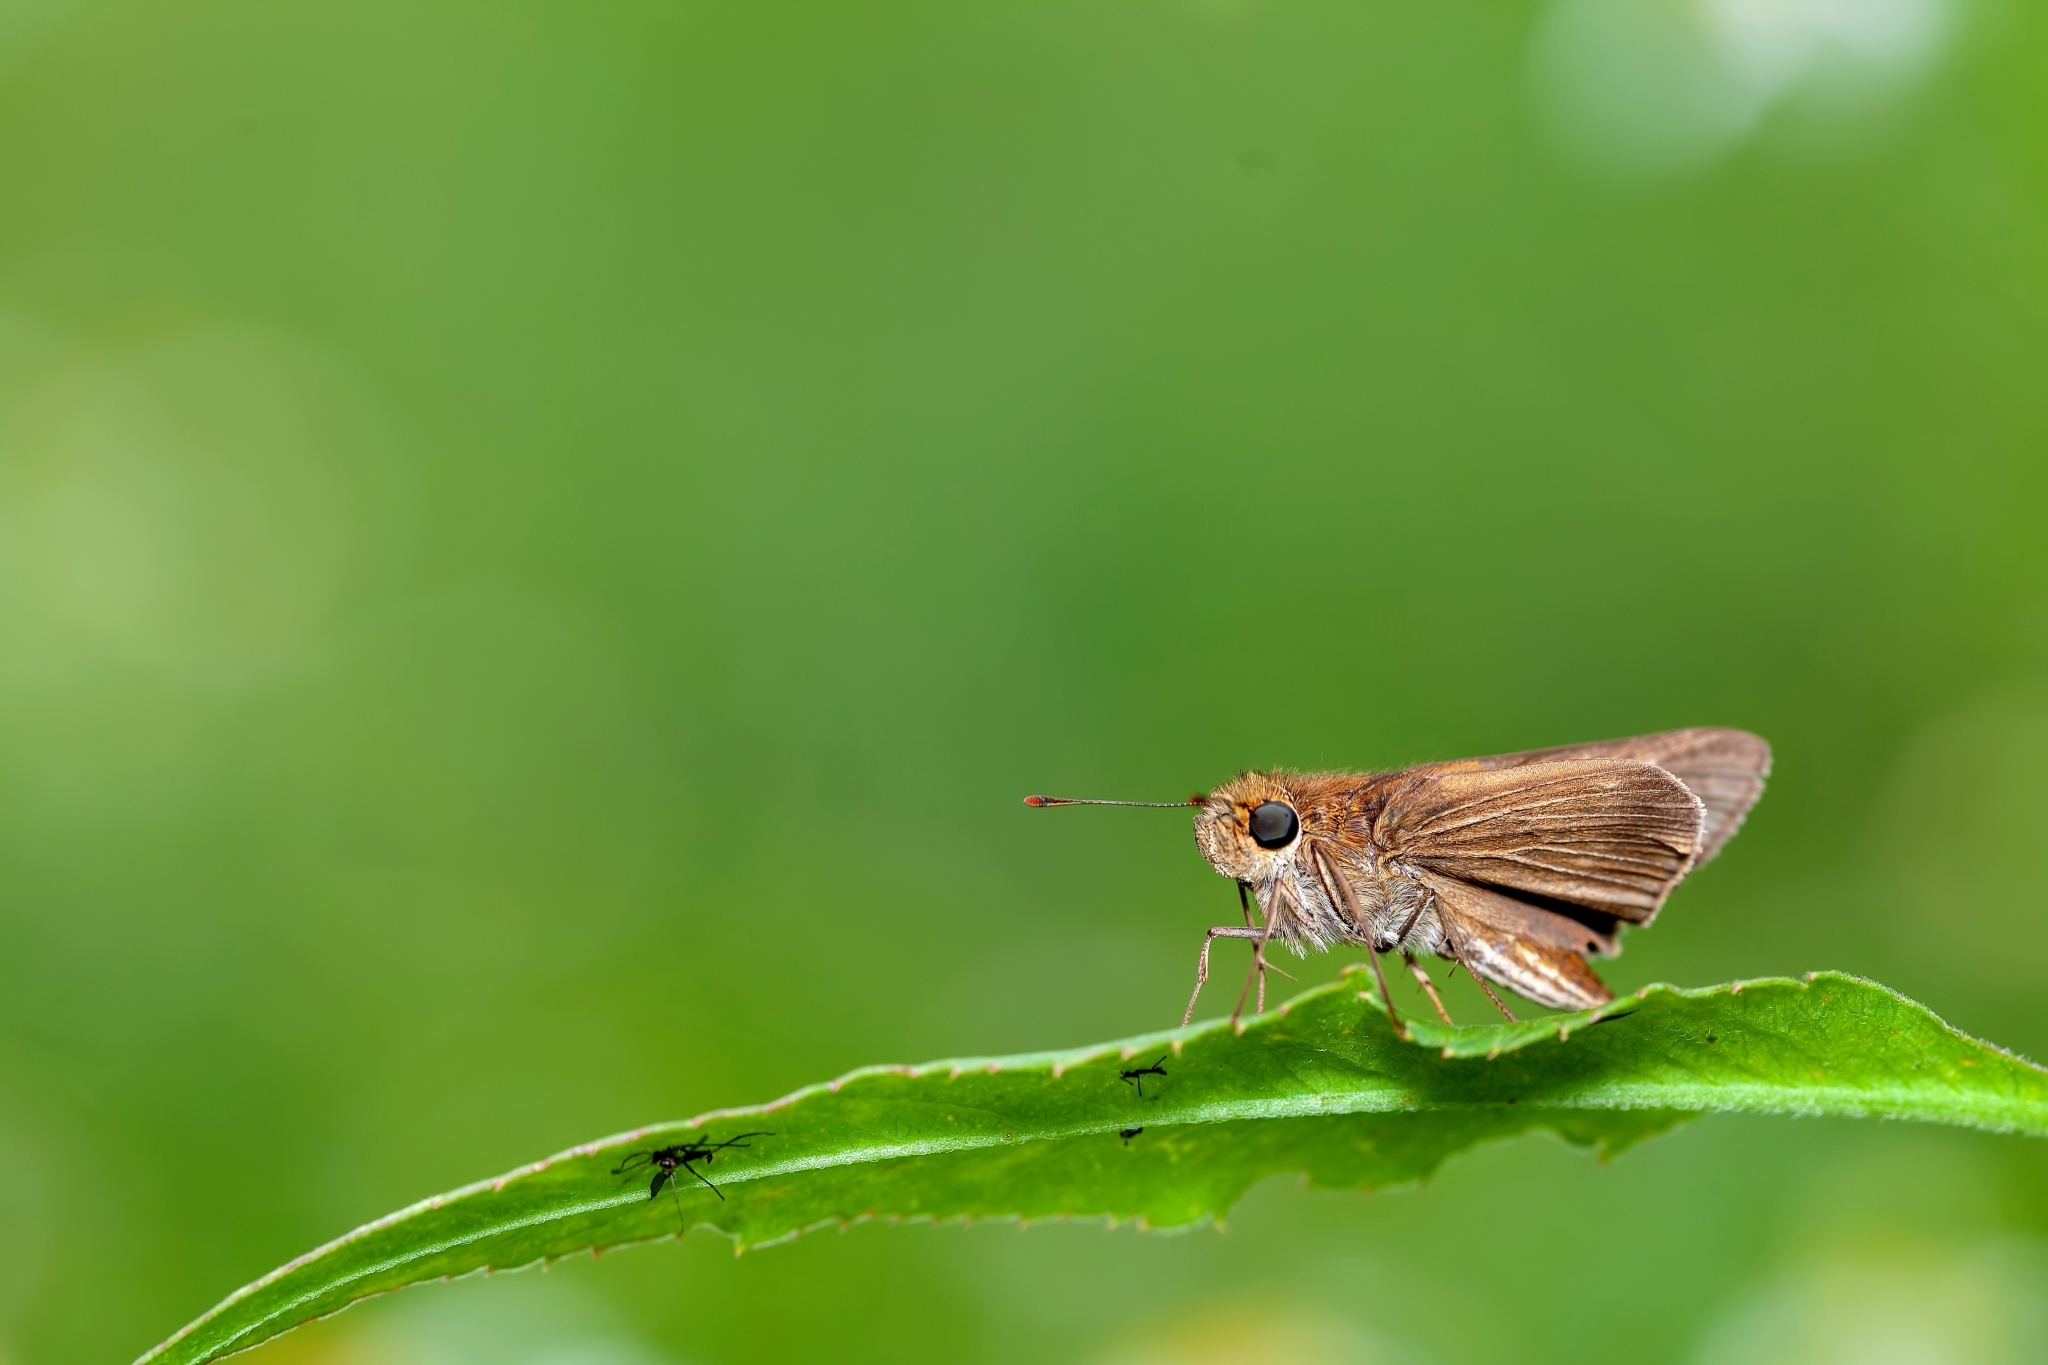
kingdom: Animalia
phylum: Arthropoda
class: Insecta
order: Lepidoptera
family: Hesperiidae
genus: Panoquina
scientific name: Panoquina ocola
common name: Ocola skipper
